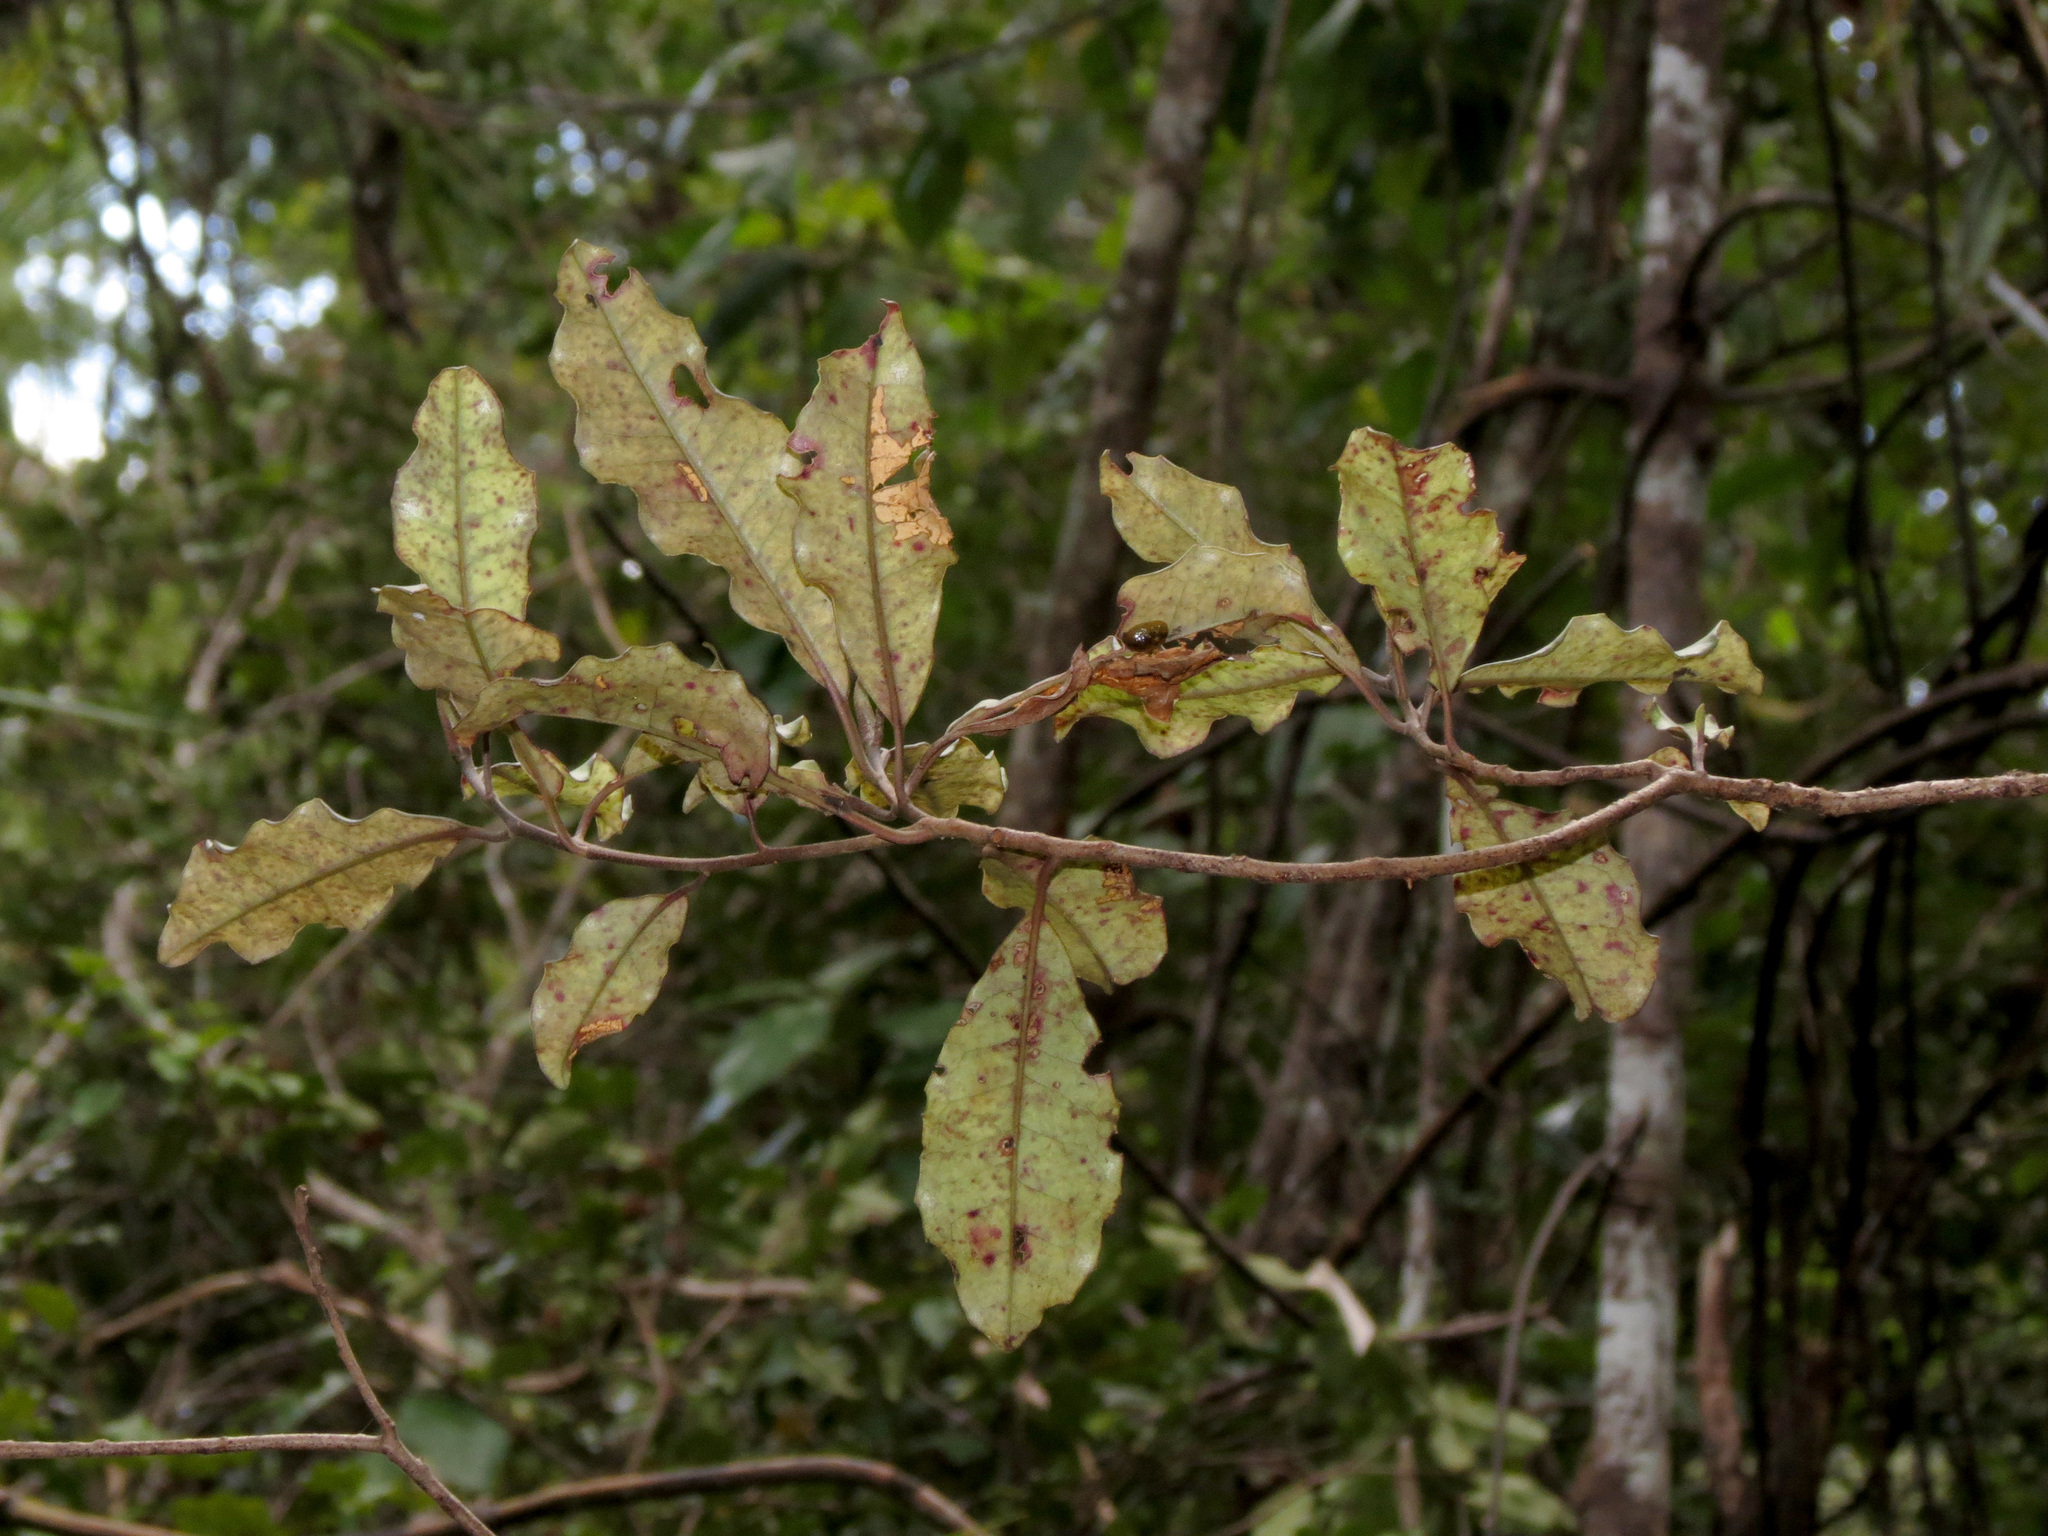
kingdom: Plantae
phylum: Tracheophyta
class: Magnoliopsida
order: Paracryphiales
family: Paracryphiaceae
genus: Quintinia
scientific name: Quintinia serrata
